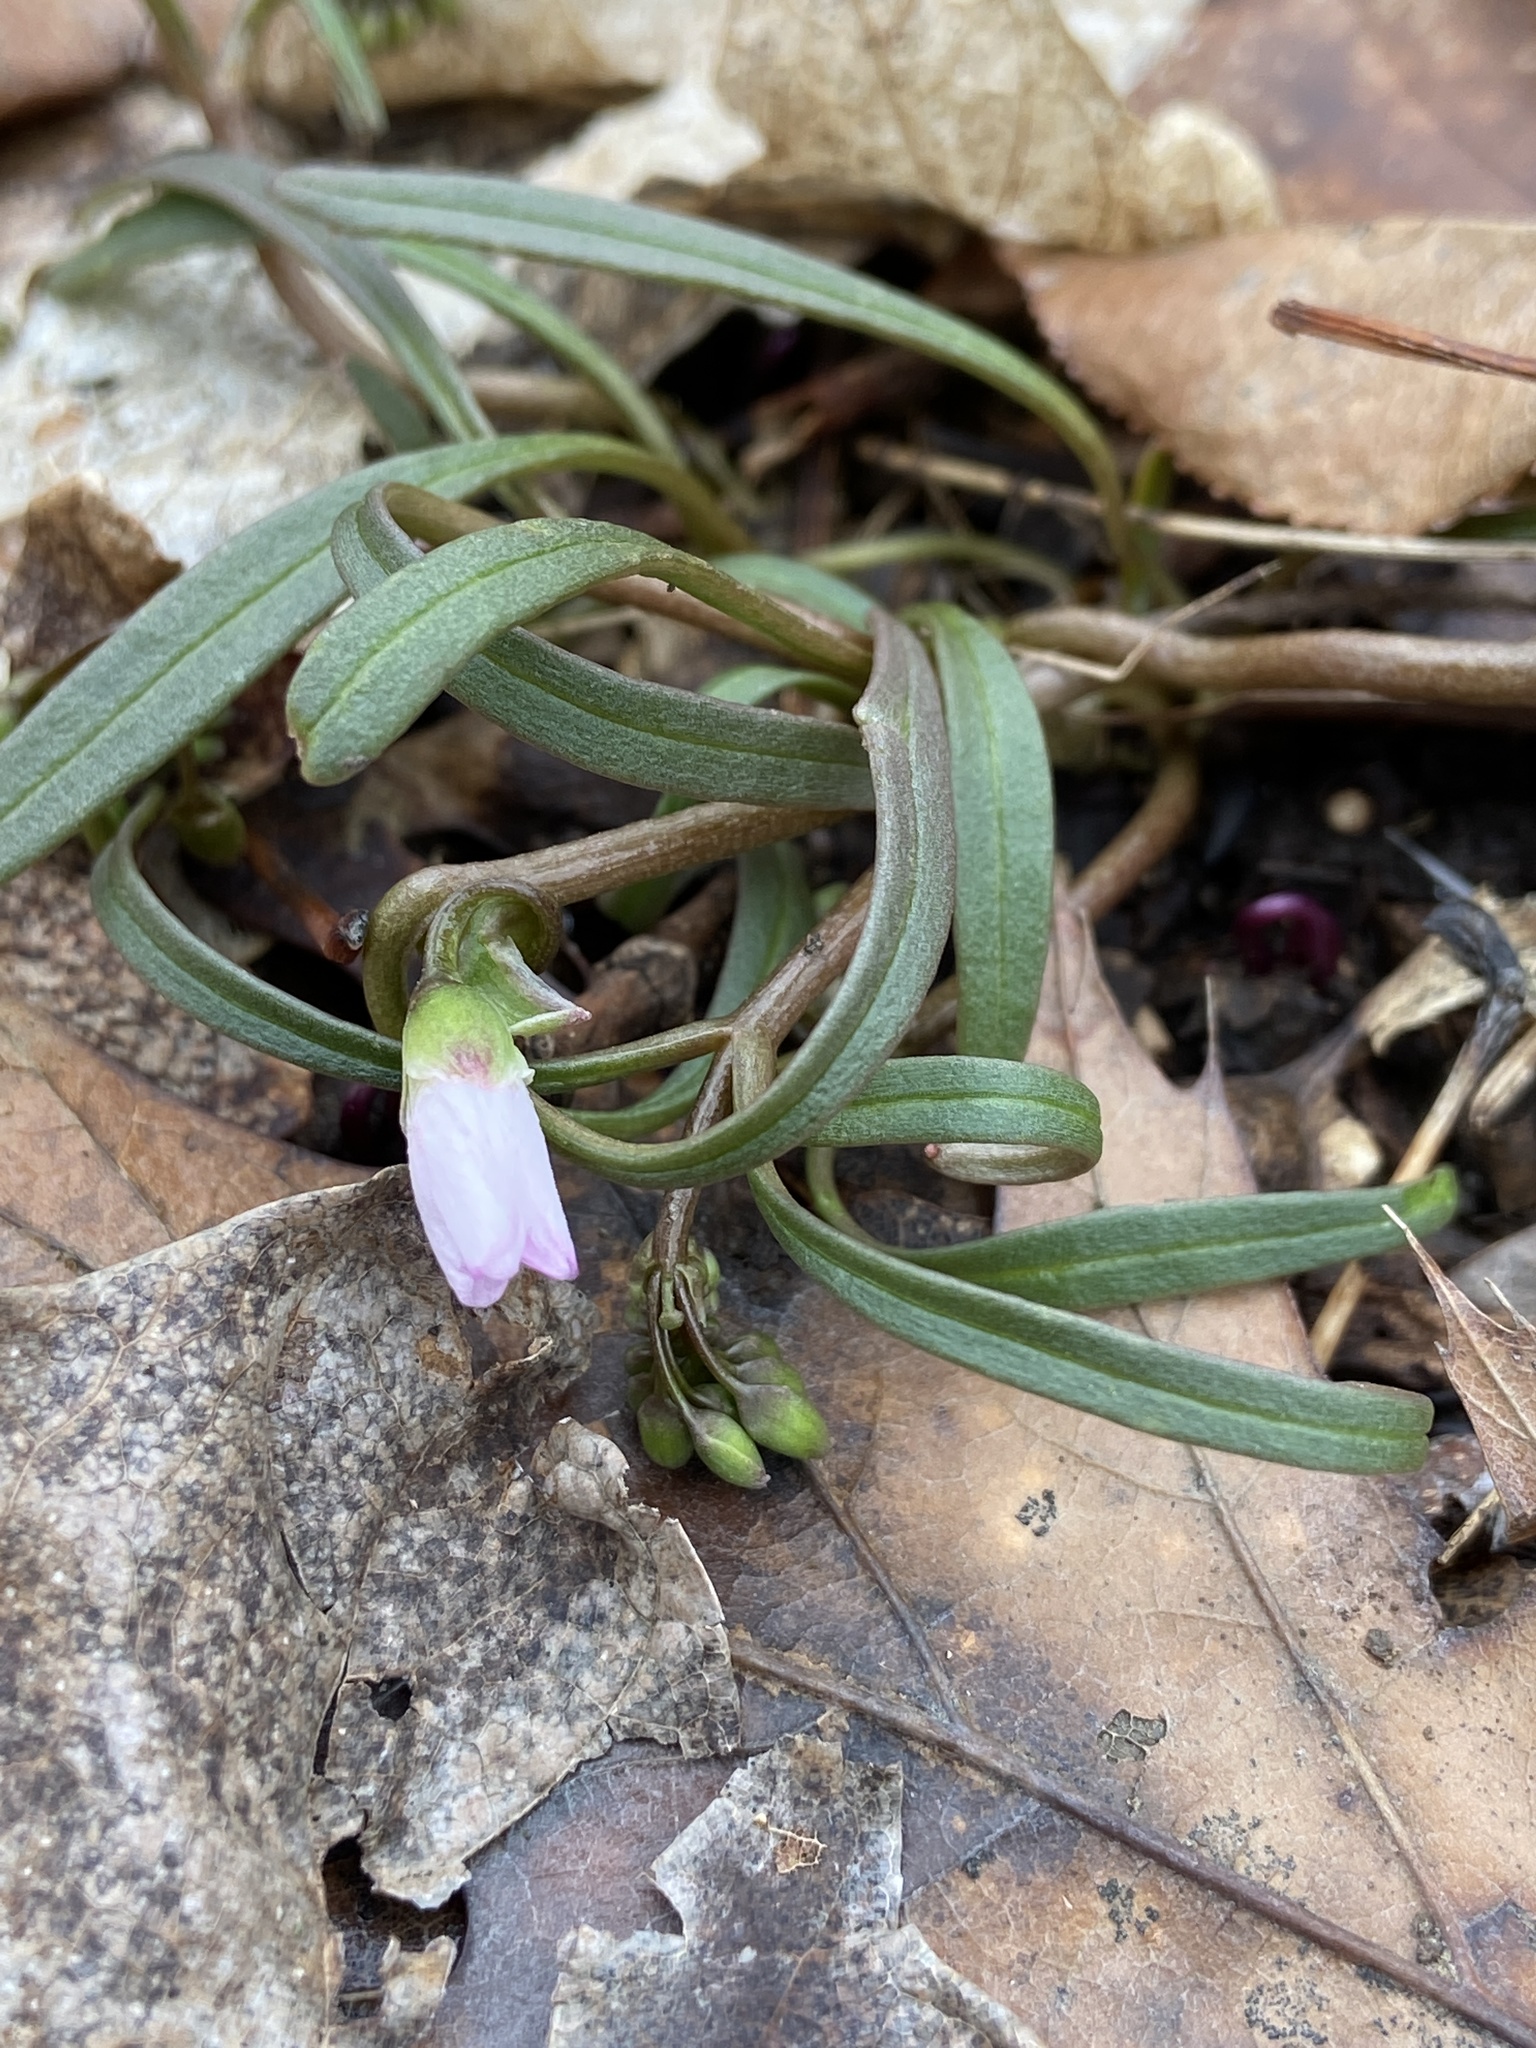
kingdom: Plantae
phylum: Tracheophyta
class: Magnoliopsida
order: Caryophyllales
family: Montiaceae
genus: Claytonia
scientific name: Claytonia virginica
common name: Virginia springbeauty
